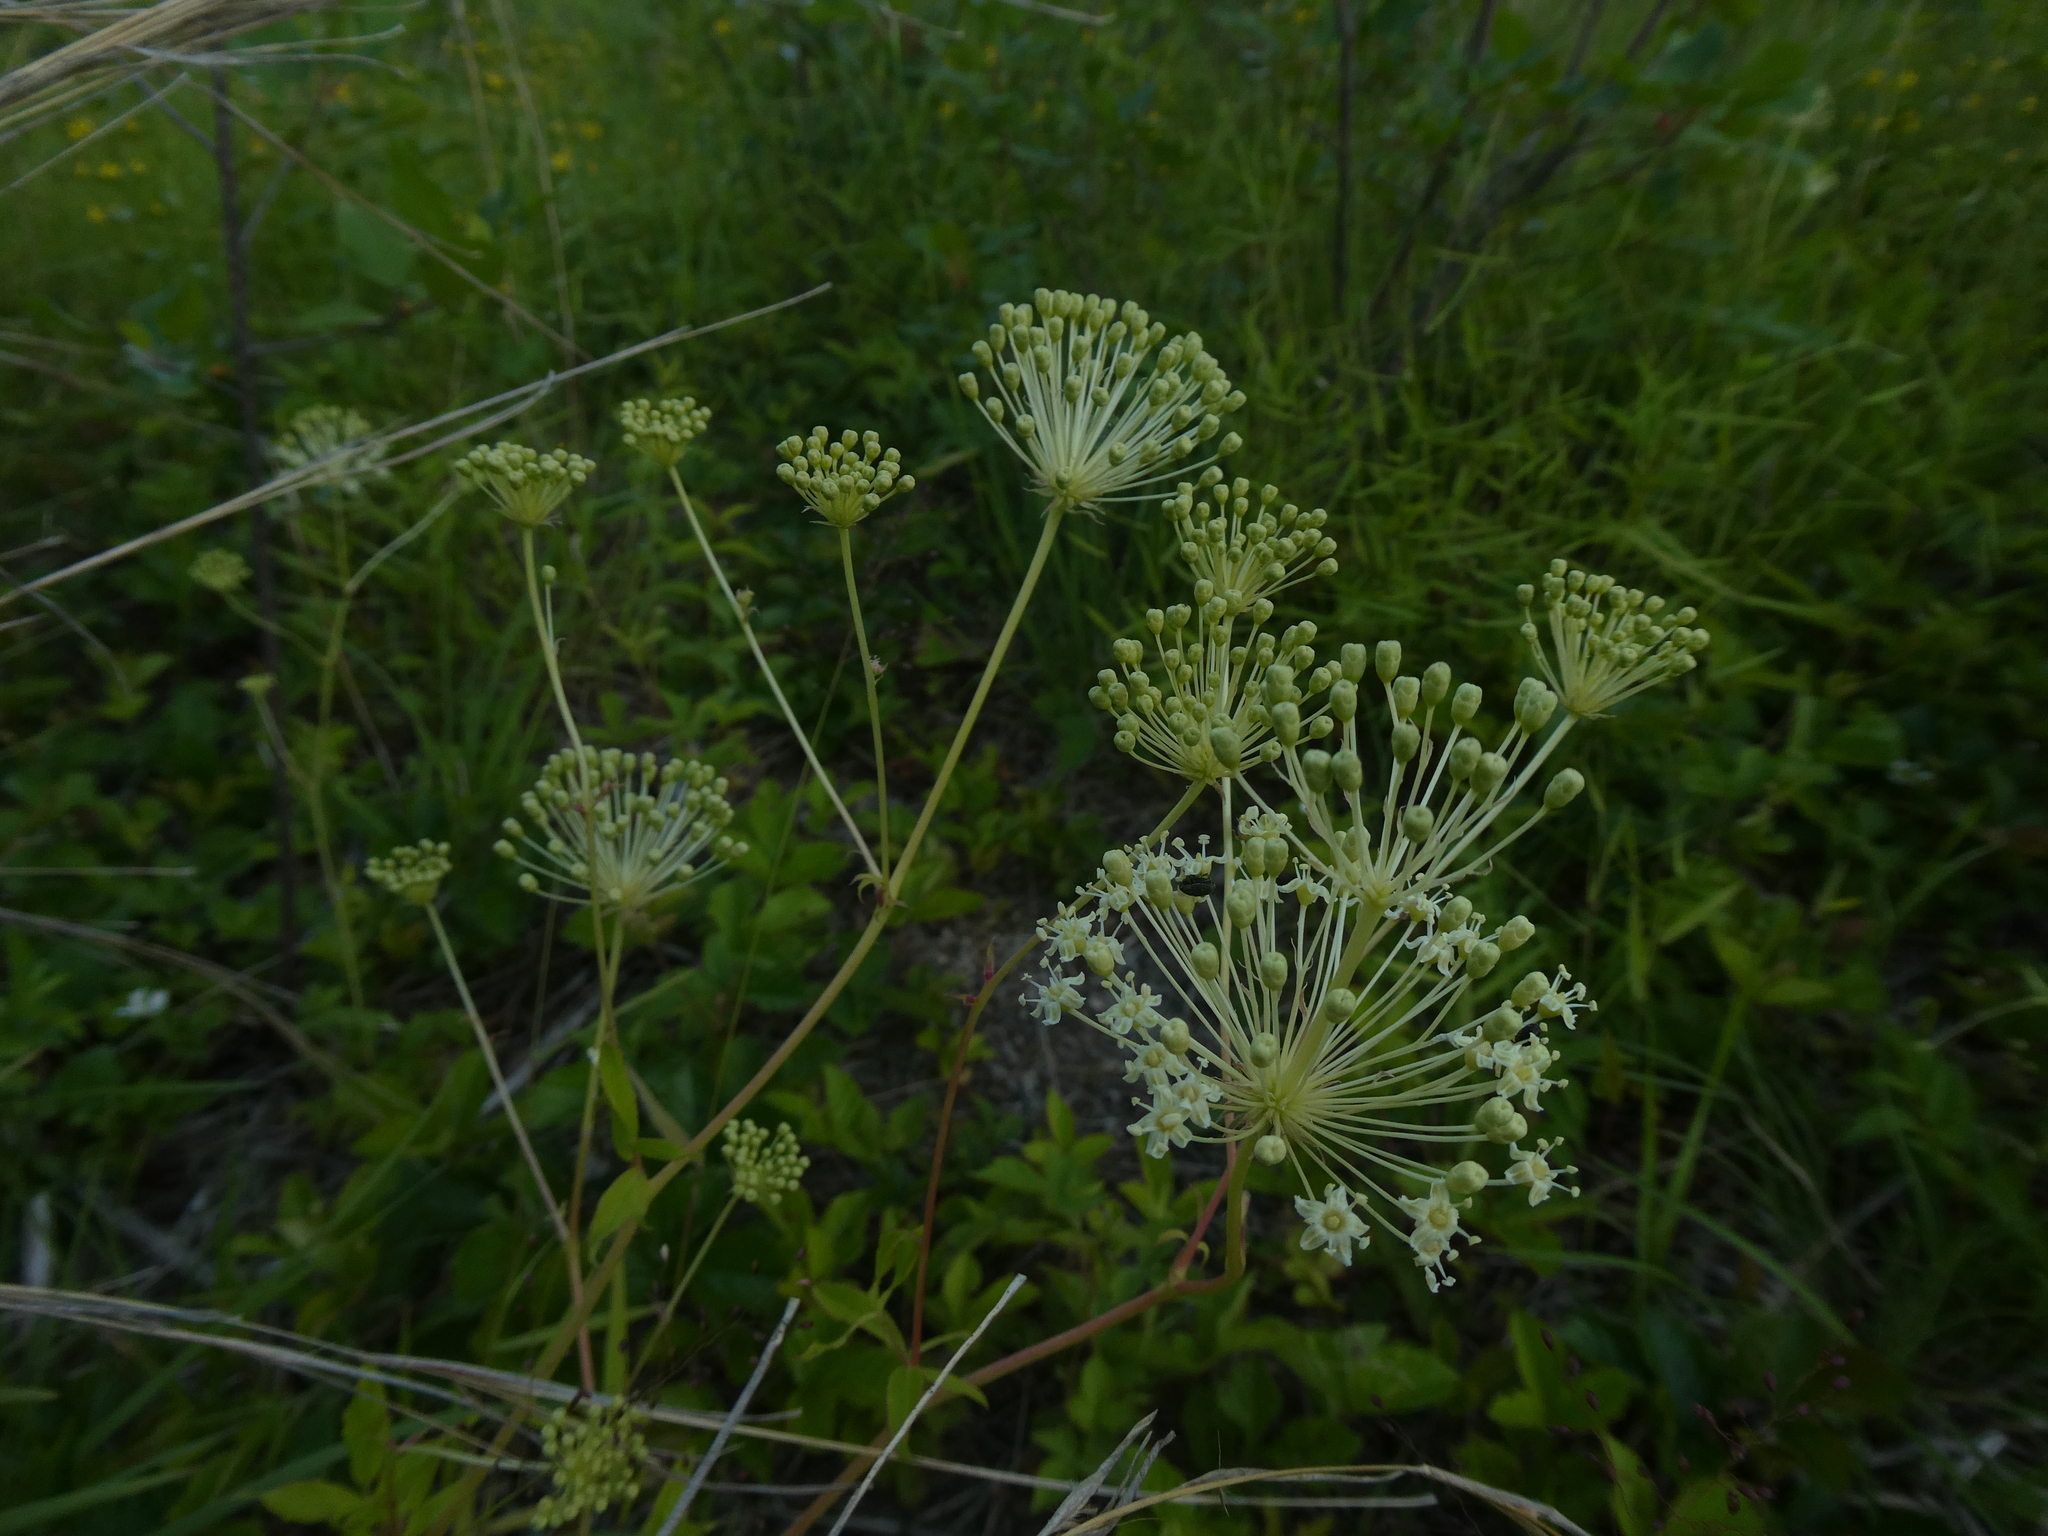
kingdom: Plantae
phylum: Tracheophyta
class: Magnoliopsida
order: Apiales
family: Araliaceae
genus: Aralia
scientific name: Aralia hispida
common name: Bristly sarsaparilla
